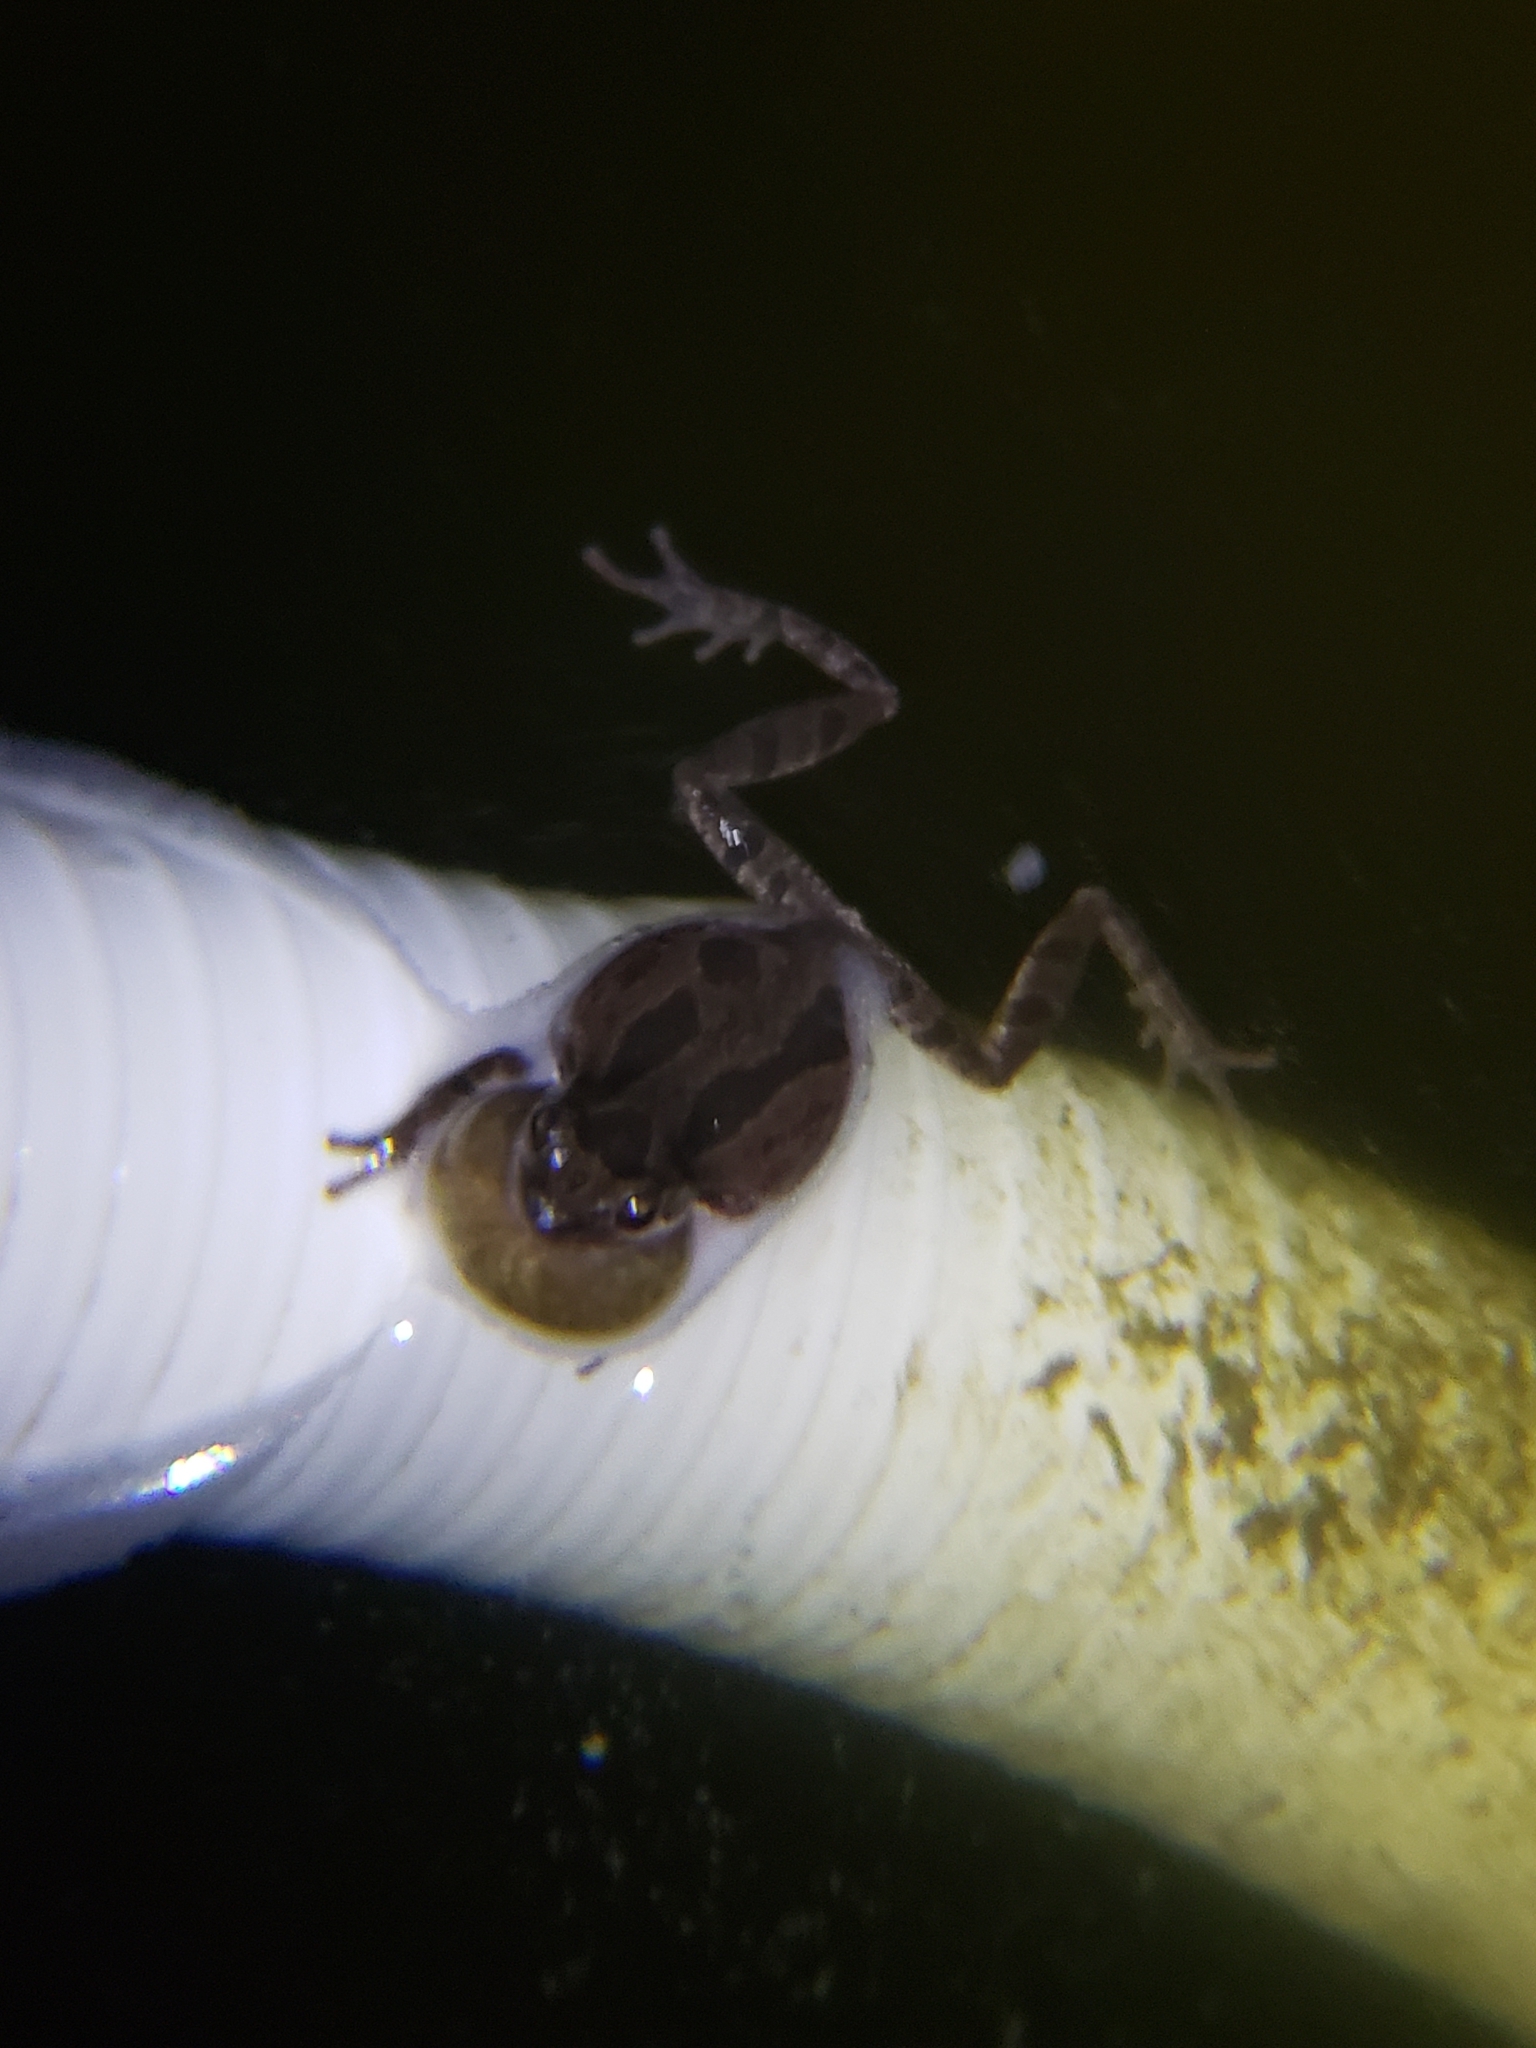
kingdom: Animalia
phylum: Chordata
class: Amphibia
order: Anura
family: Hylidae
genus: Pseudacris
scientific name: Pseudacris regilla
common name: Pacific chorus frog
